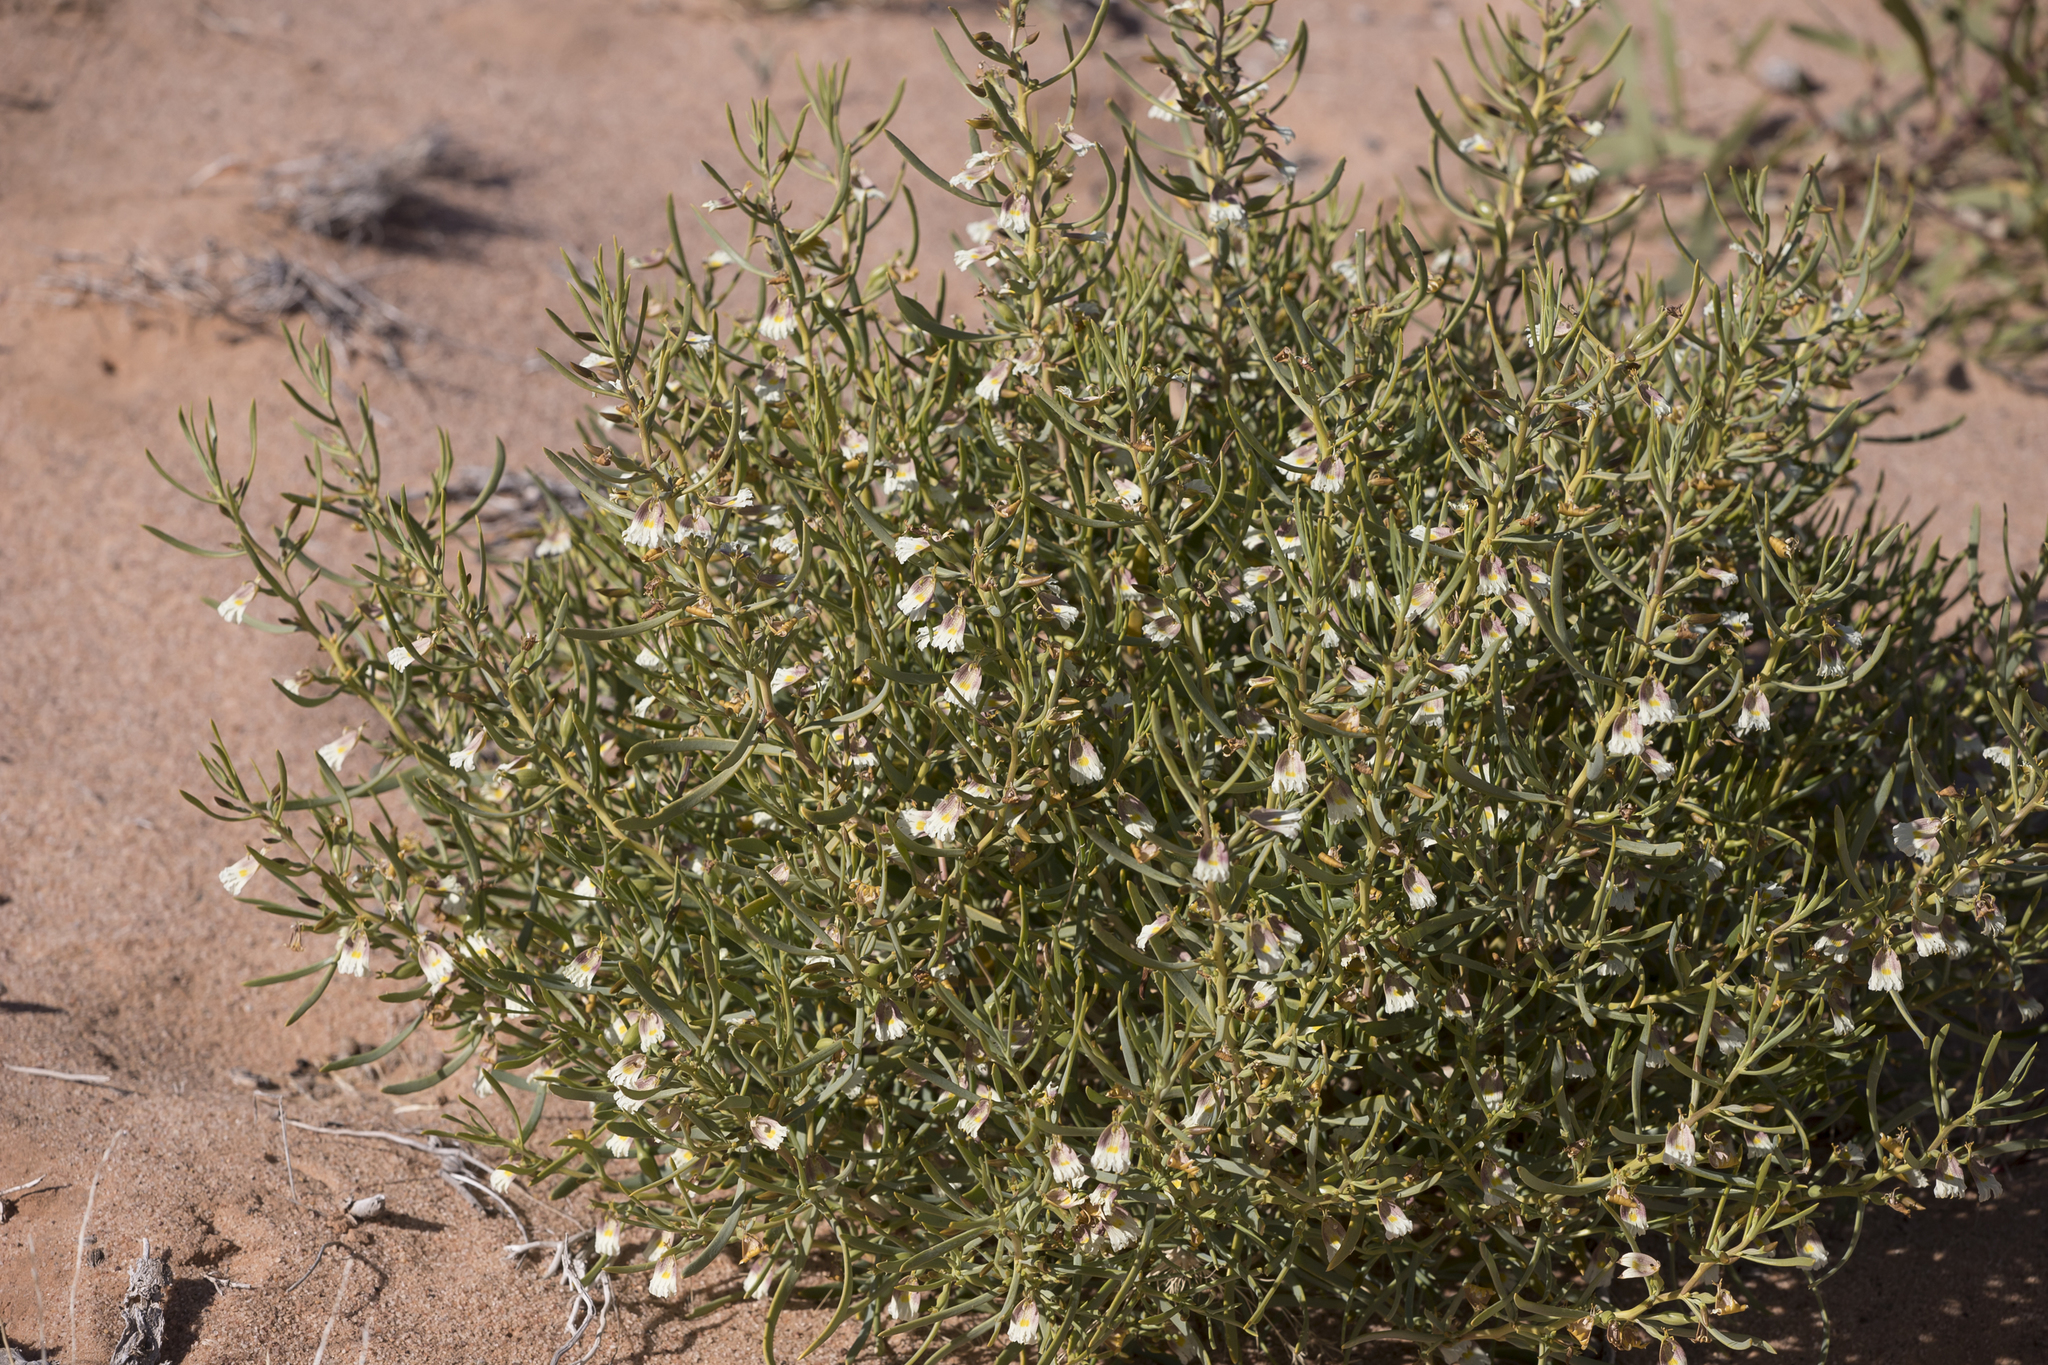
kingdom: Plantae
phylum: Tracheophyta
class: Magnoliopsida
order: Asterales
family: Goodeniaceae
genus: Goodenia
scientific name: Goodenia collaris
